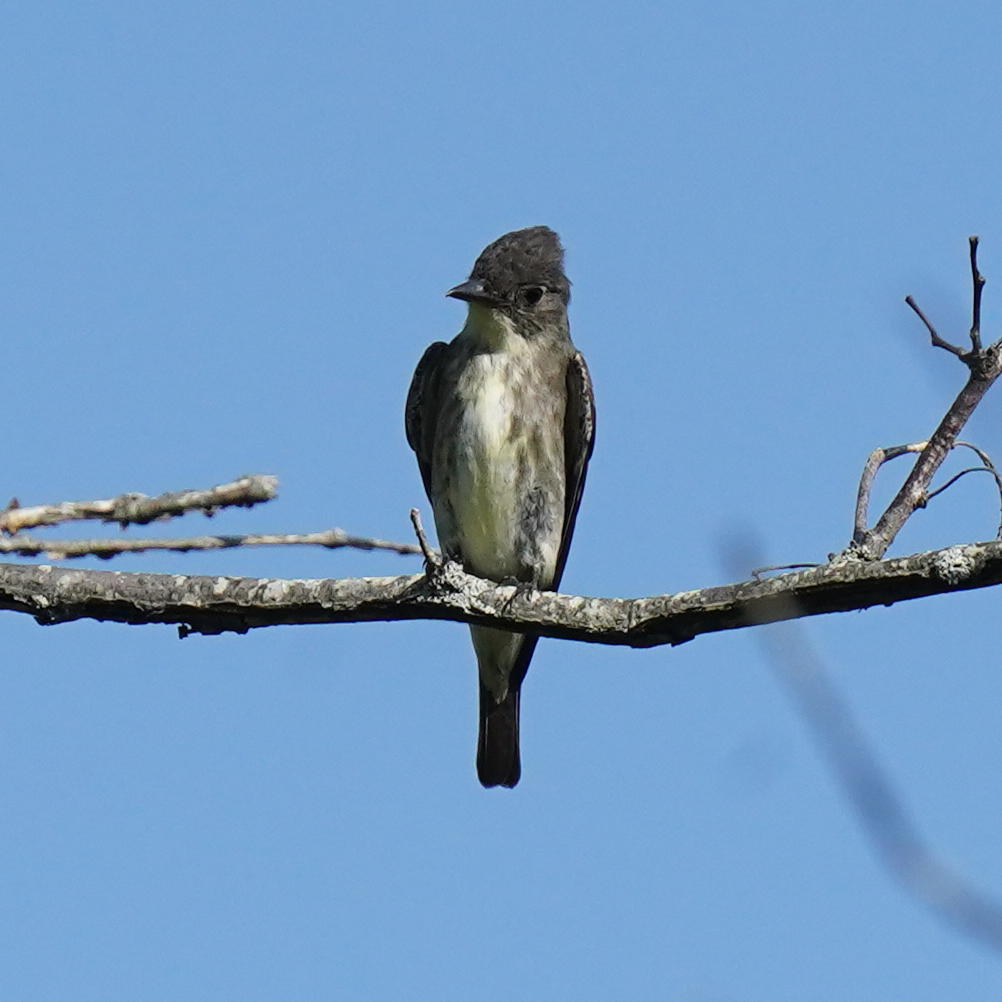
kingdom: Animalia
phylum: Chordata
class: Aves
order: Passeriformes
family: Tyrannidae
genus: Contopus
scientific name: Contopus cooperi
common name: Olive-sided flycatcher
